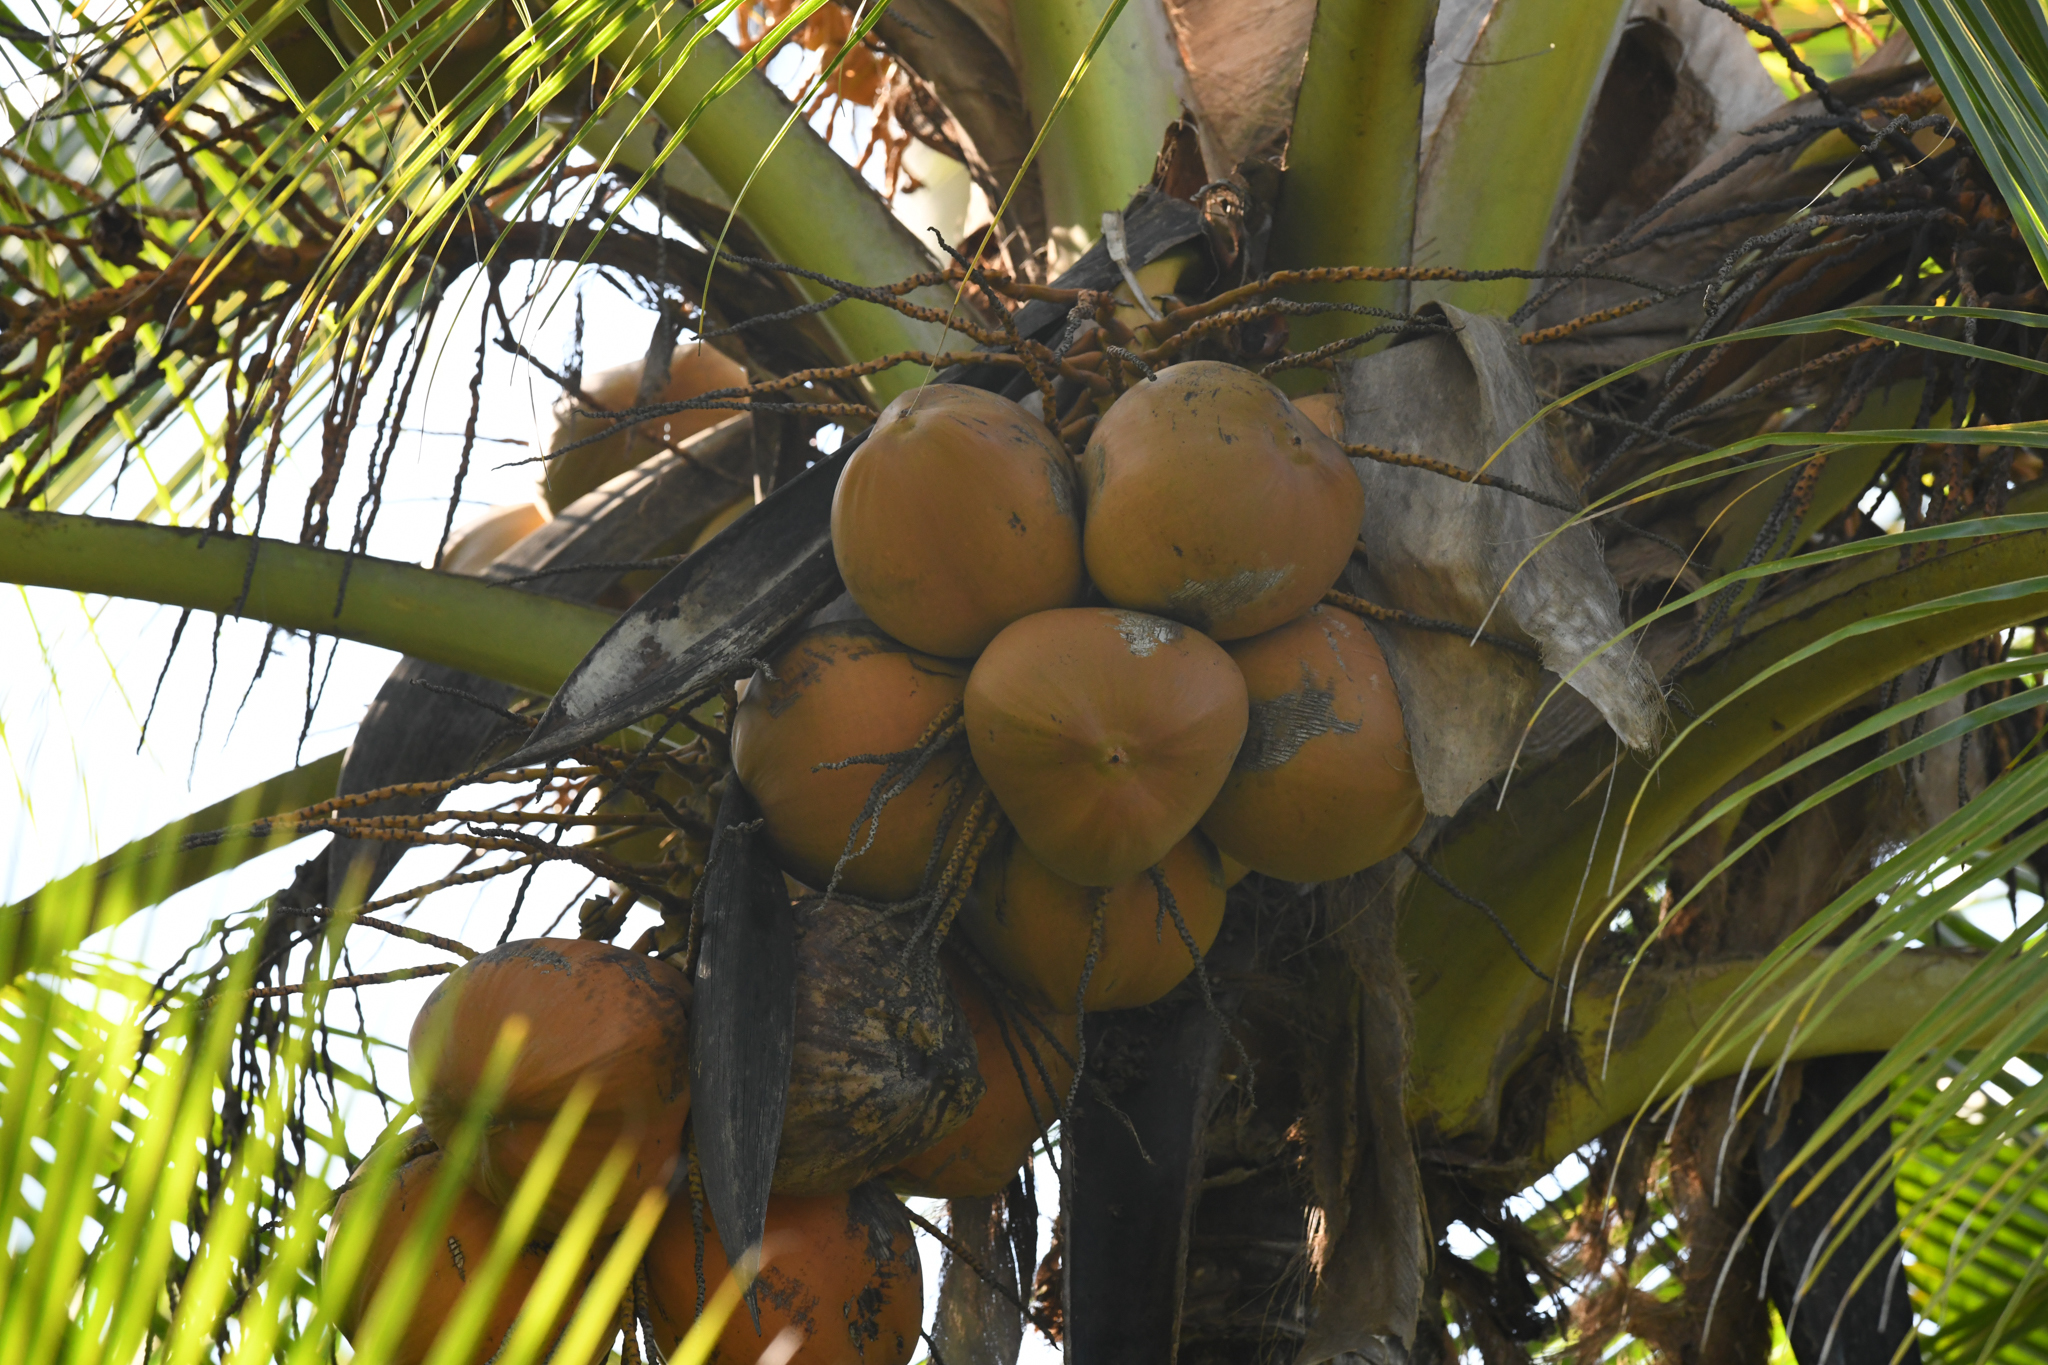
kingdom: Plantae
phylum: Tracheophyta
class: Liliopsida
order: Arecales
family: Arecaceae
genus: Cocos
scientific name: Cocos nucifera
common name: Coconut palm
